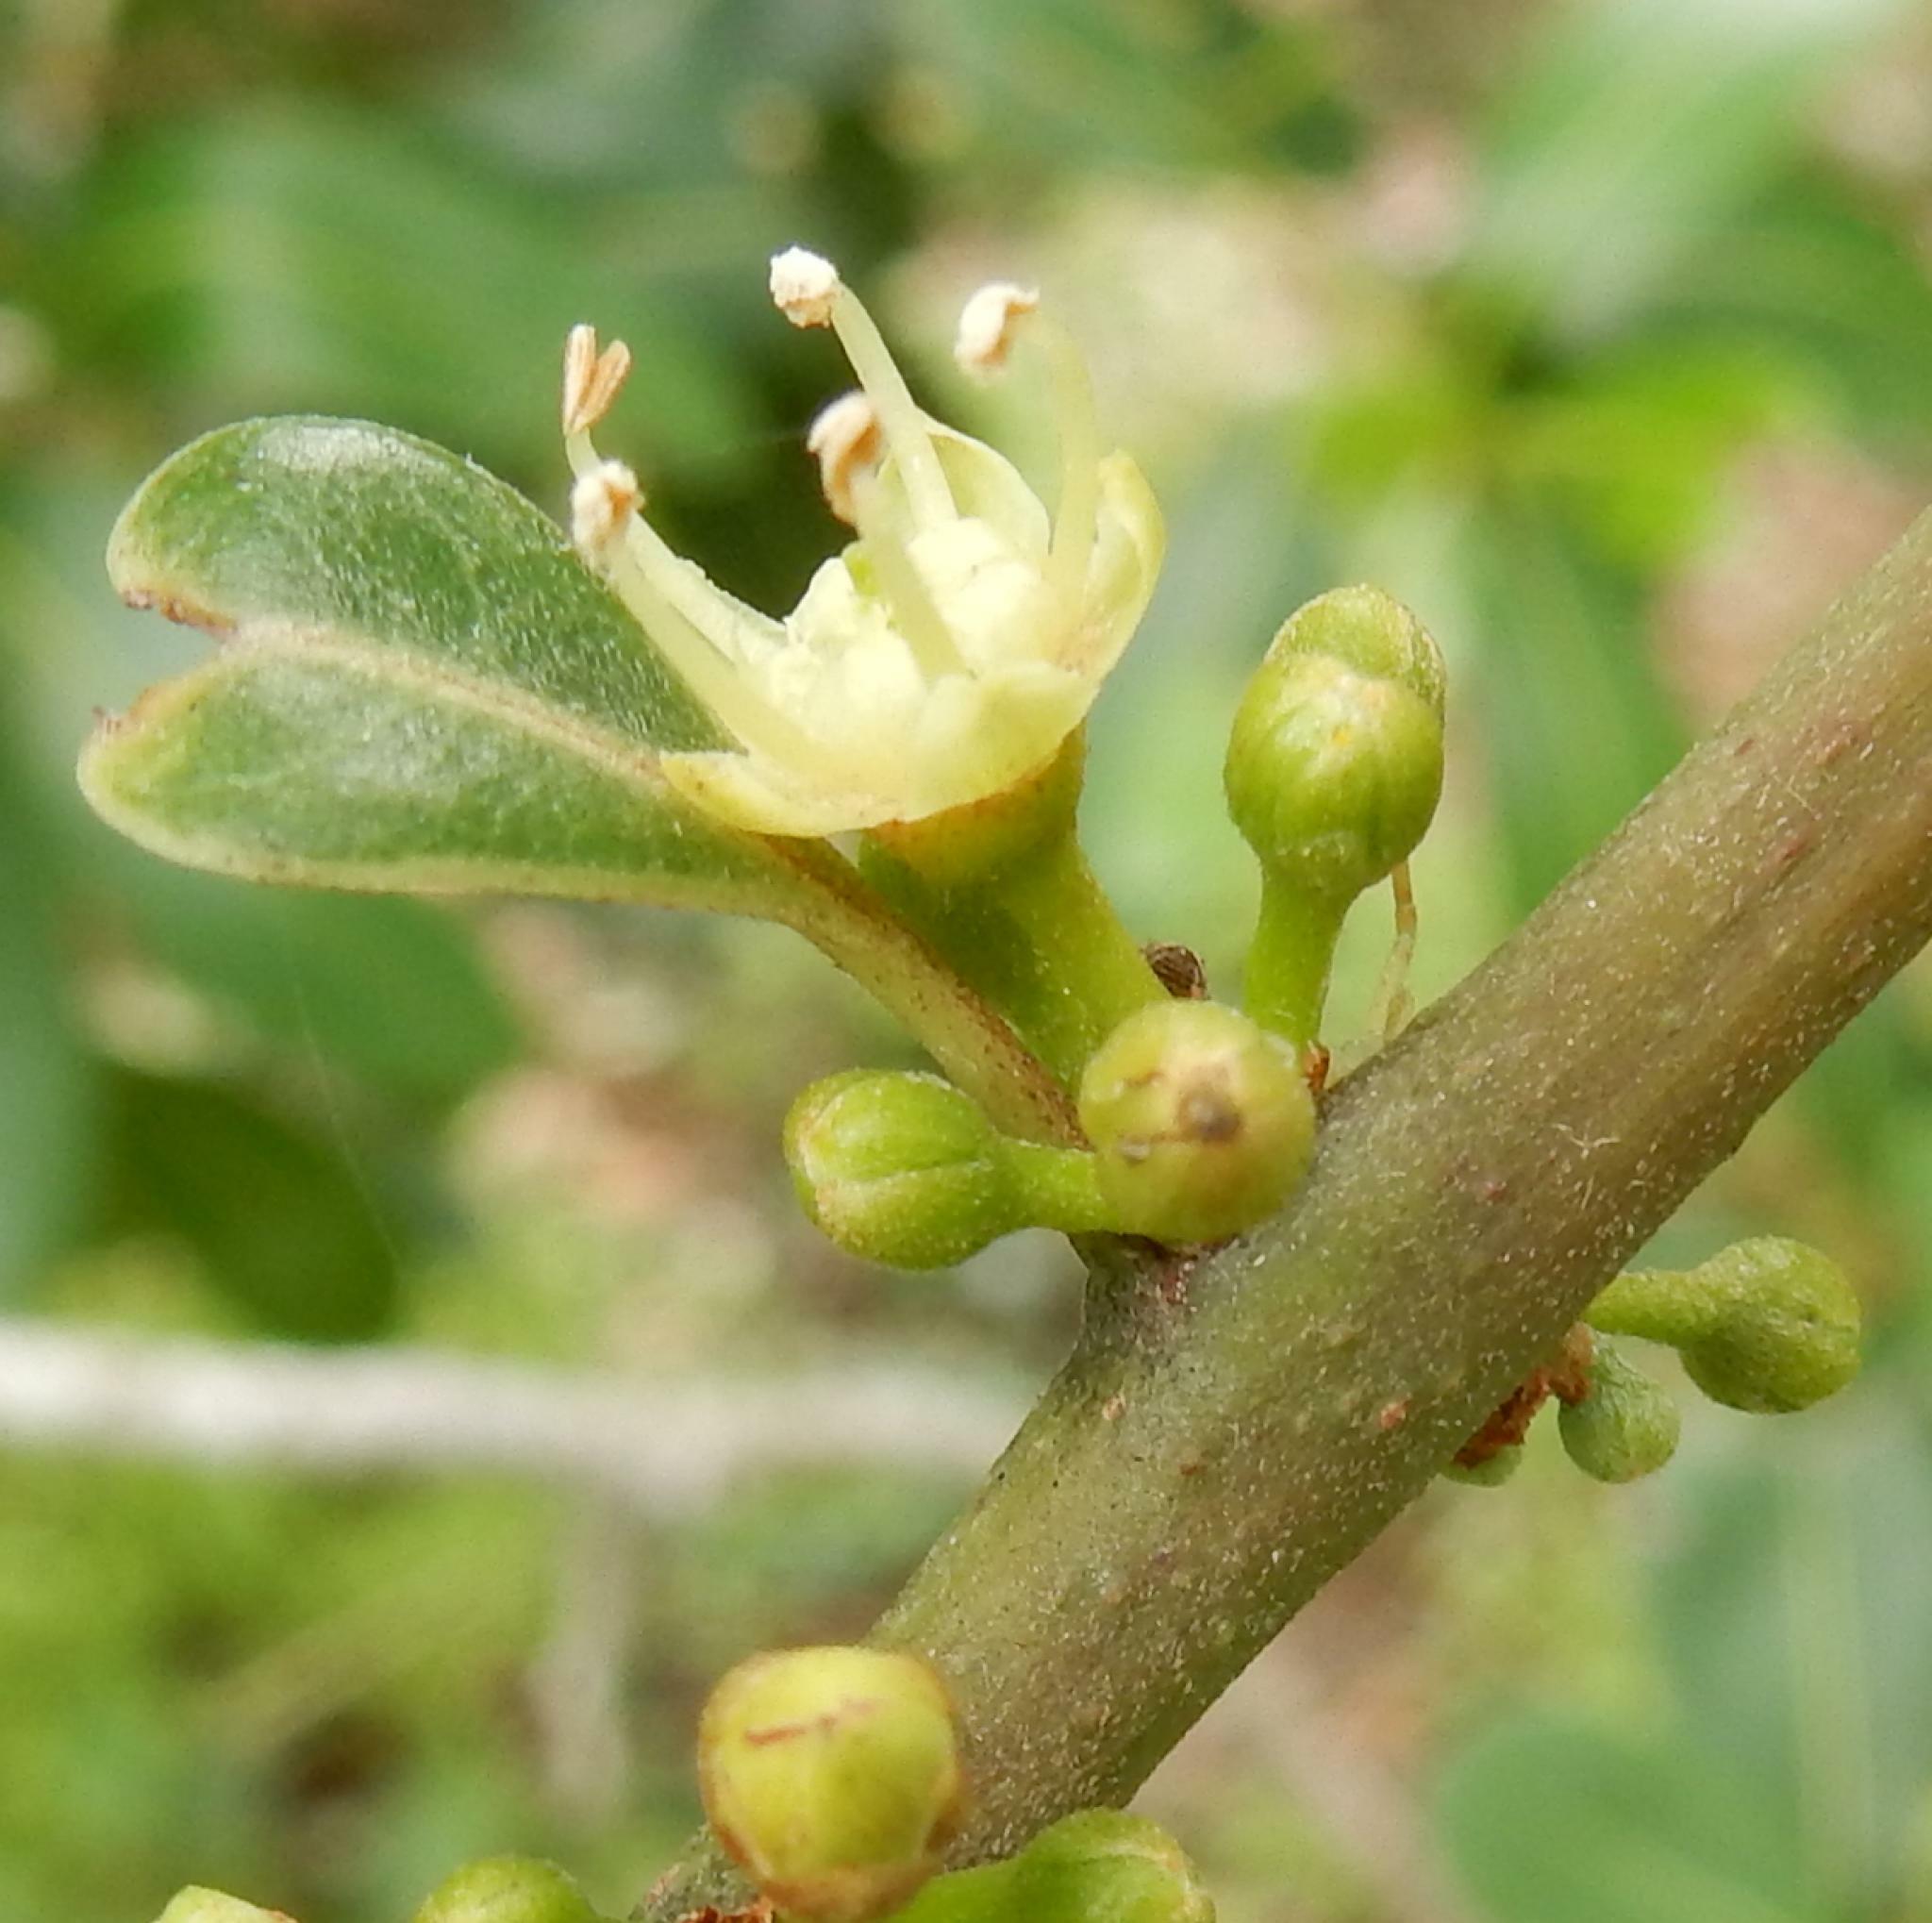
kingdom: Plantae
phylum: Tracheophyta
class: Magnoliopsida
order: Ericales
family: Sapotaceae
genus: Sideroxylon
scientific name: Sideroxylon inerme
